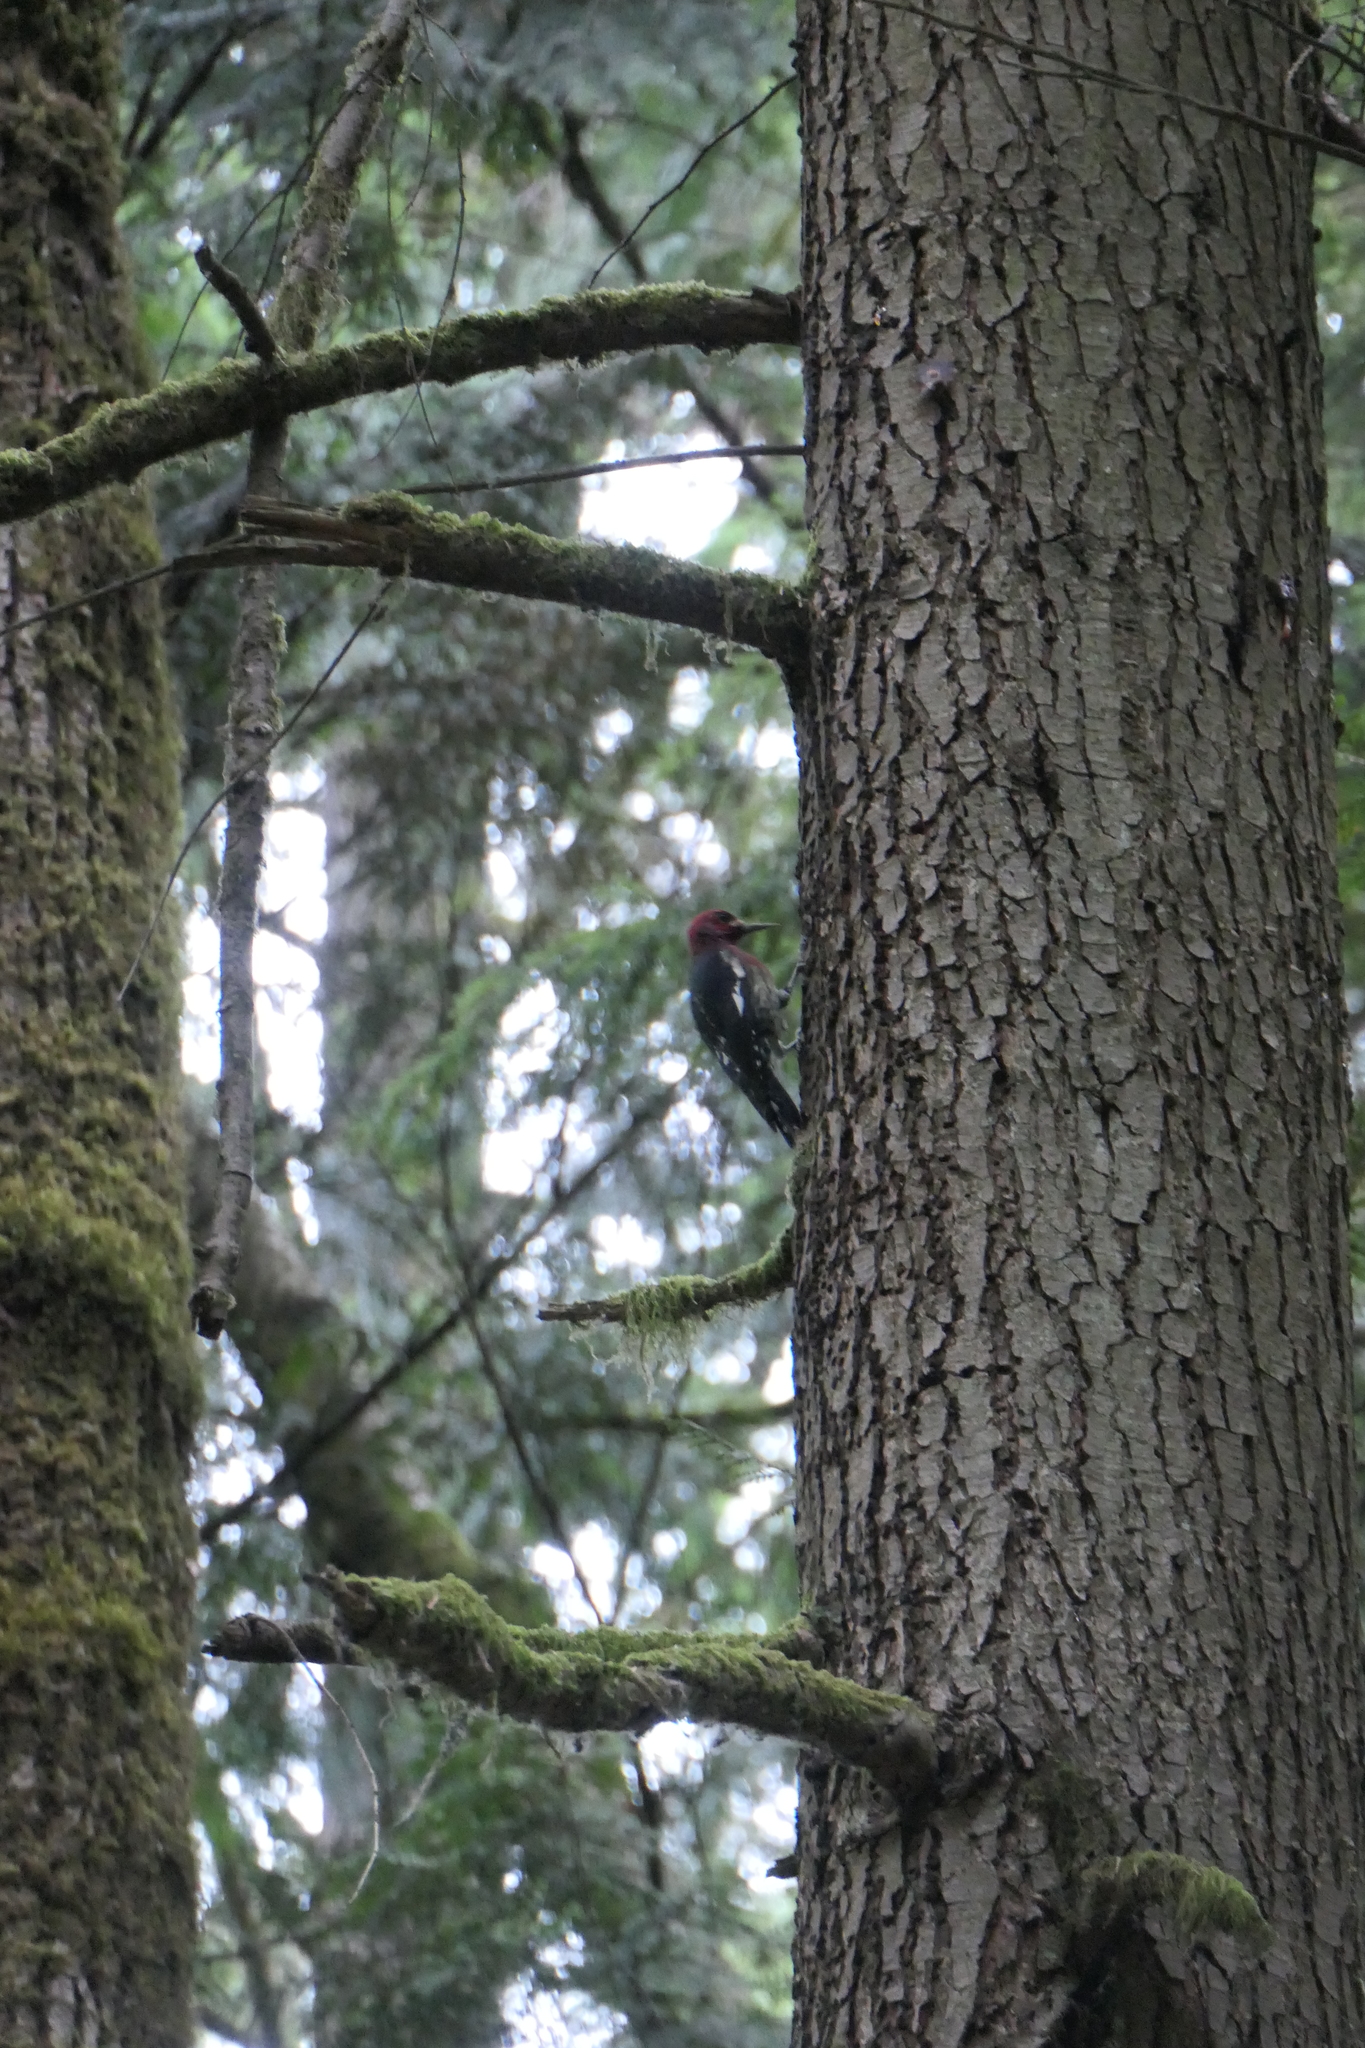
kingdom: Animalia
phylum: Chordata
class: Aves
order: Piciformes
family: Picidae
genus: Sphyrapicus
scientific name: Sphyrapicus ruber
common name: Red-breasted sapsucker
